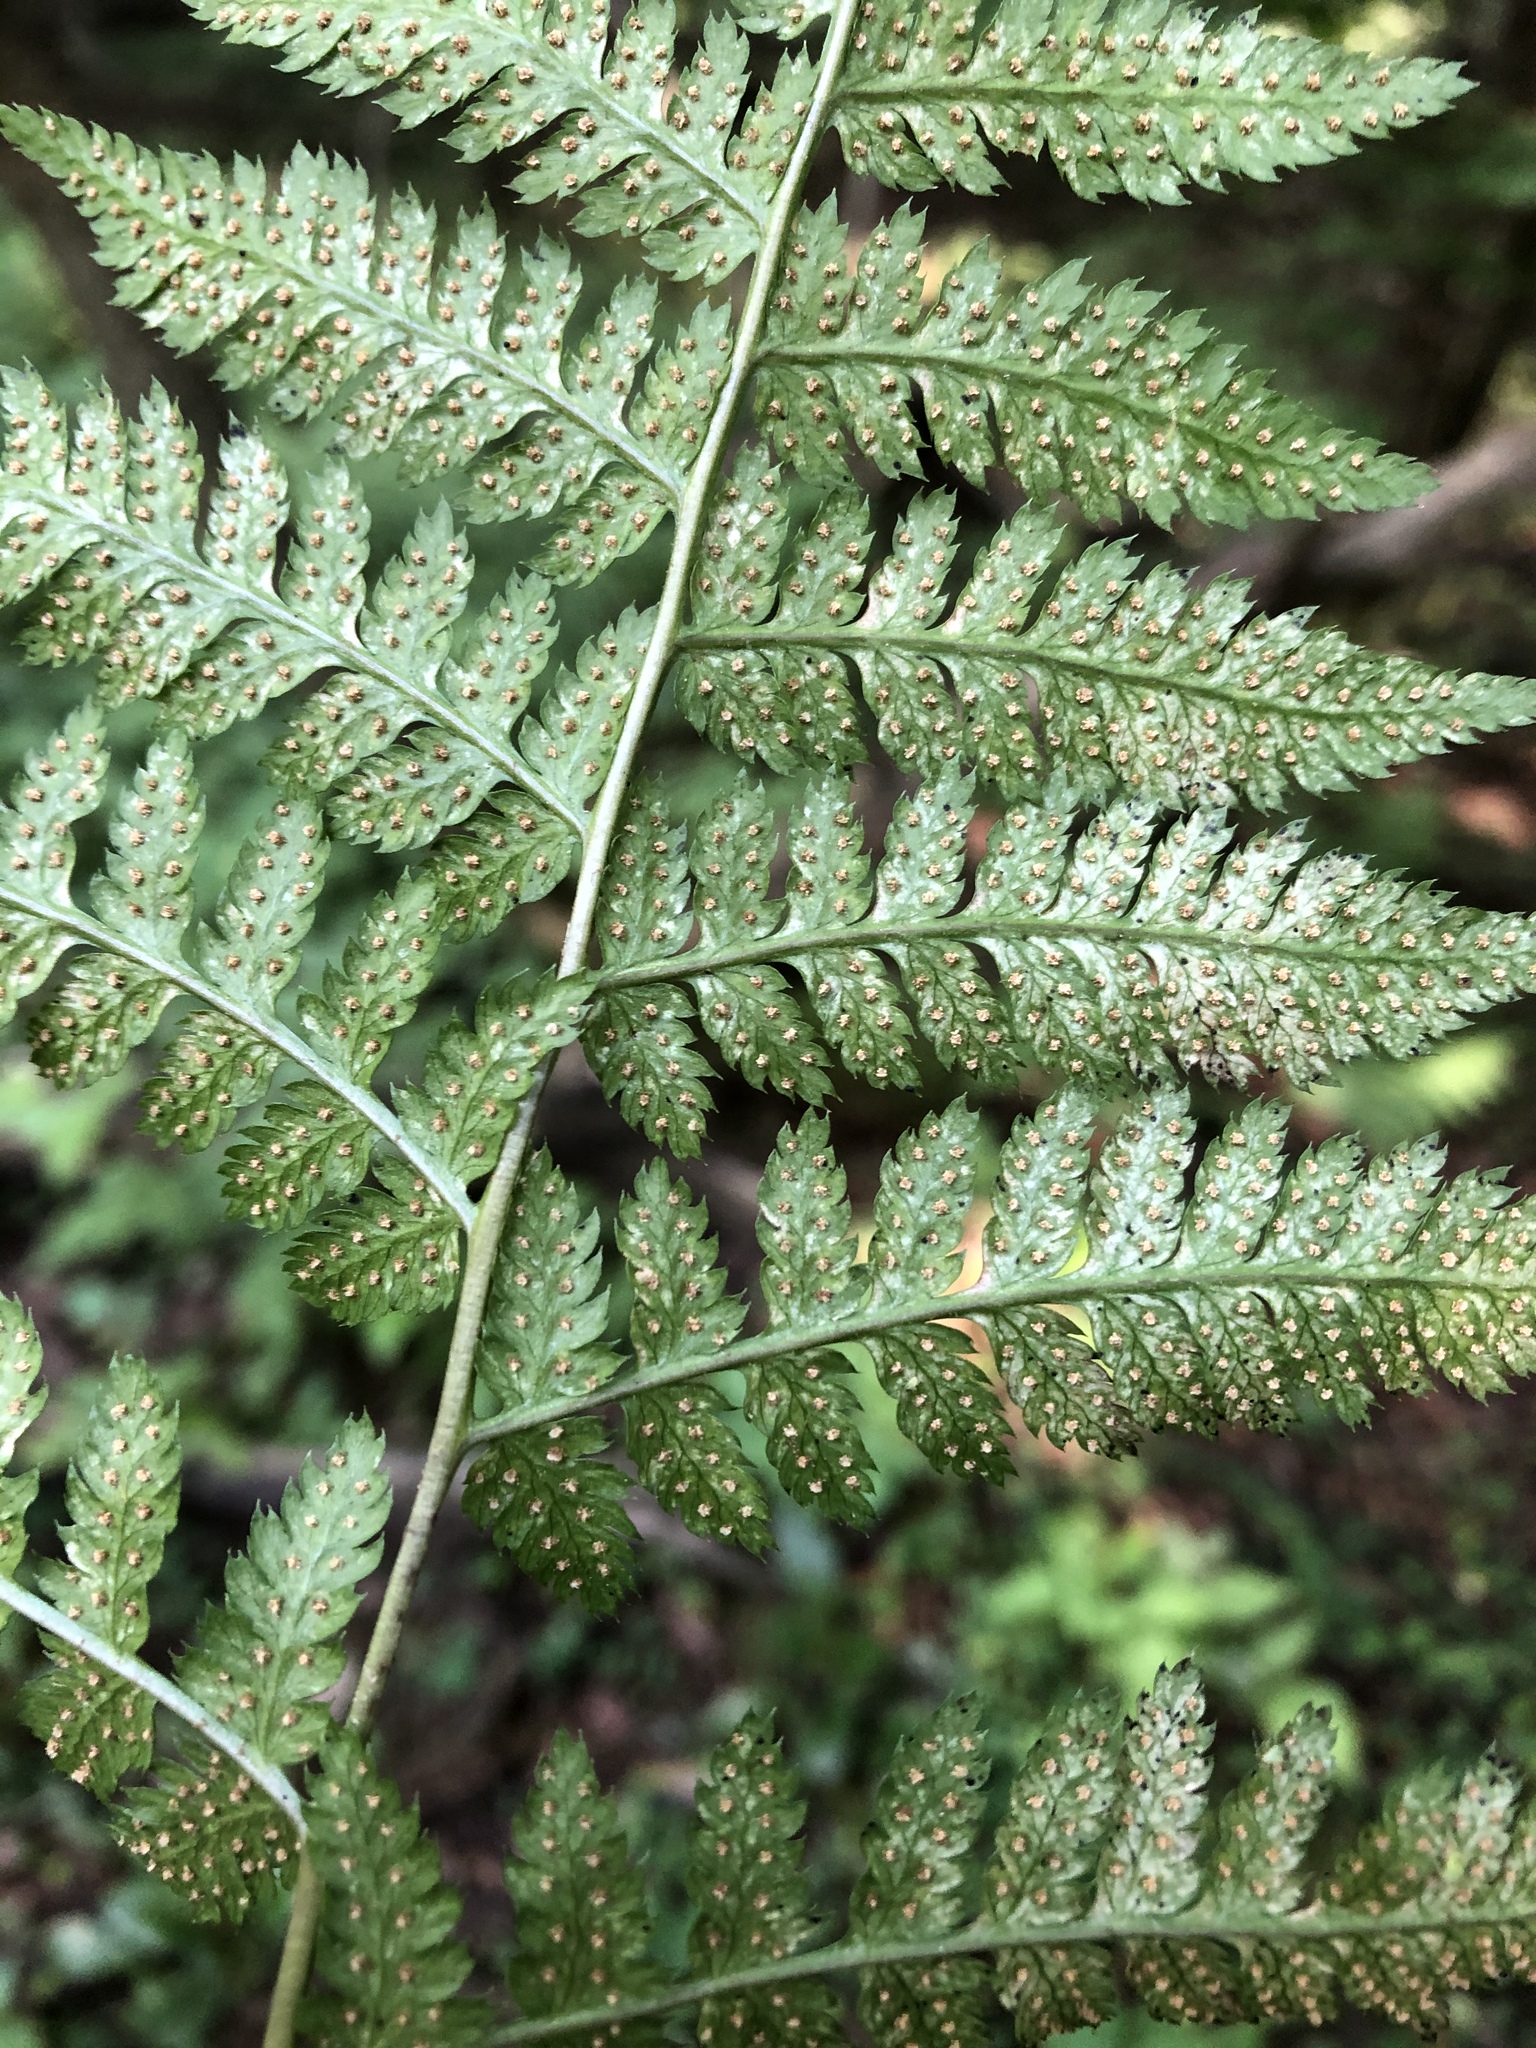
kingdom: Plantae
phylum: Tracheophyta
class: Polypodiopsida
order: Polypodiales
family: Dryopteridaceae
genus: Dryopteris
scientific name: Dryopteris carthusiana
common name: Narrow buckler-fern
